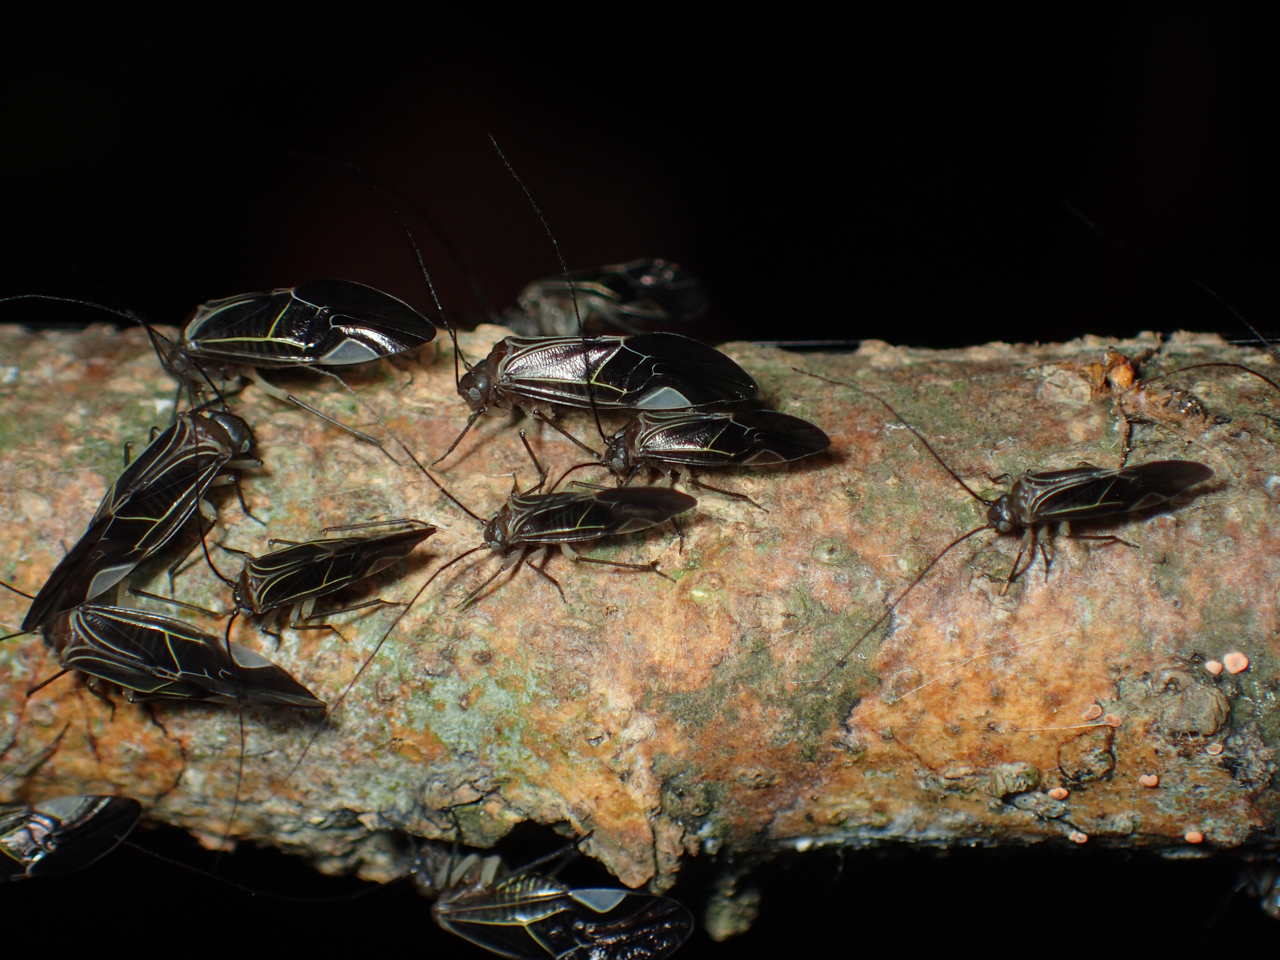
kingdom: Animalia
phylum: Arthropoda
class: Insecta
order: Psocodea
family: Psocidae
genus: Cerastipsocus
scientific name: Cerastipsocus venosus
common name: Tree cattle
